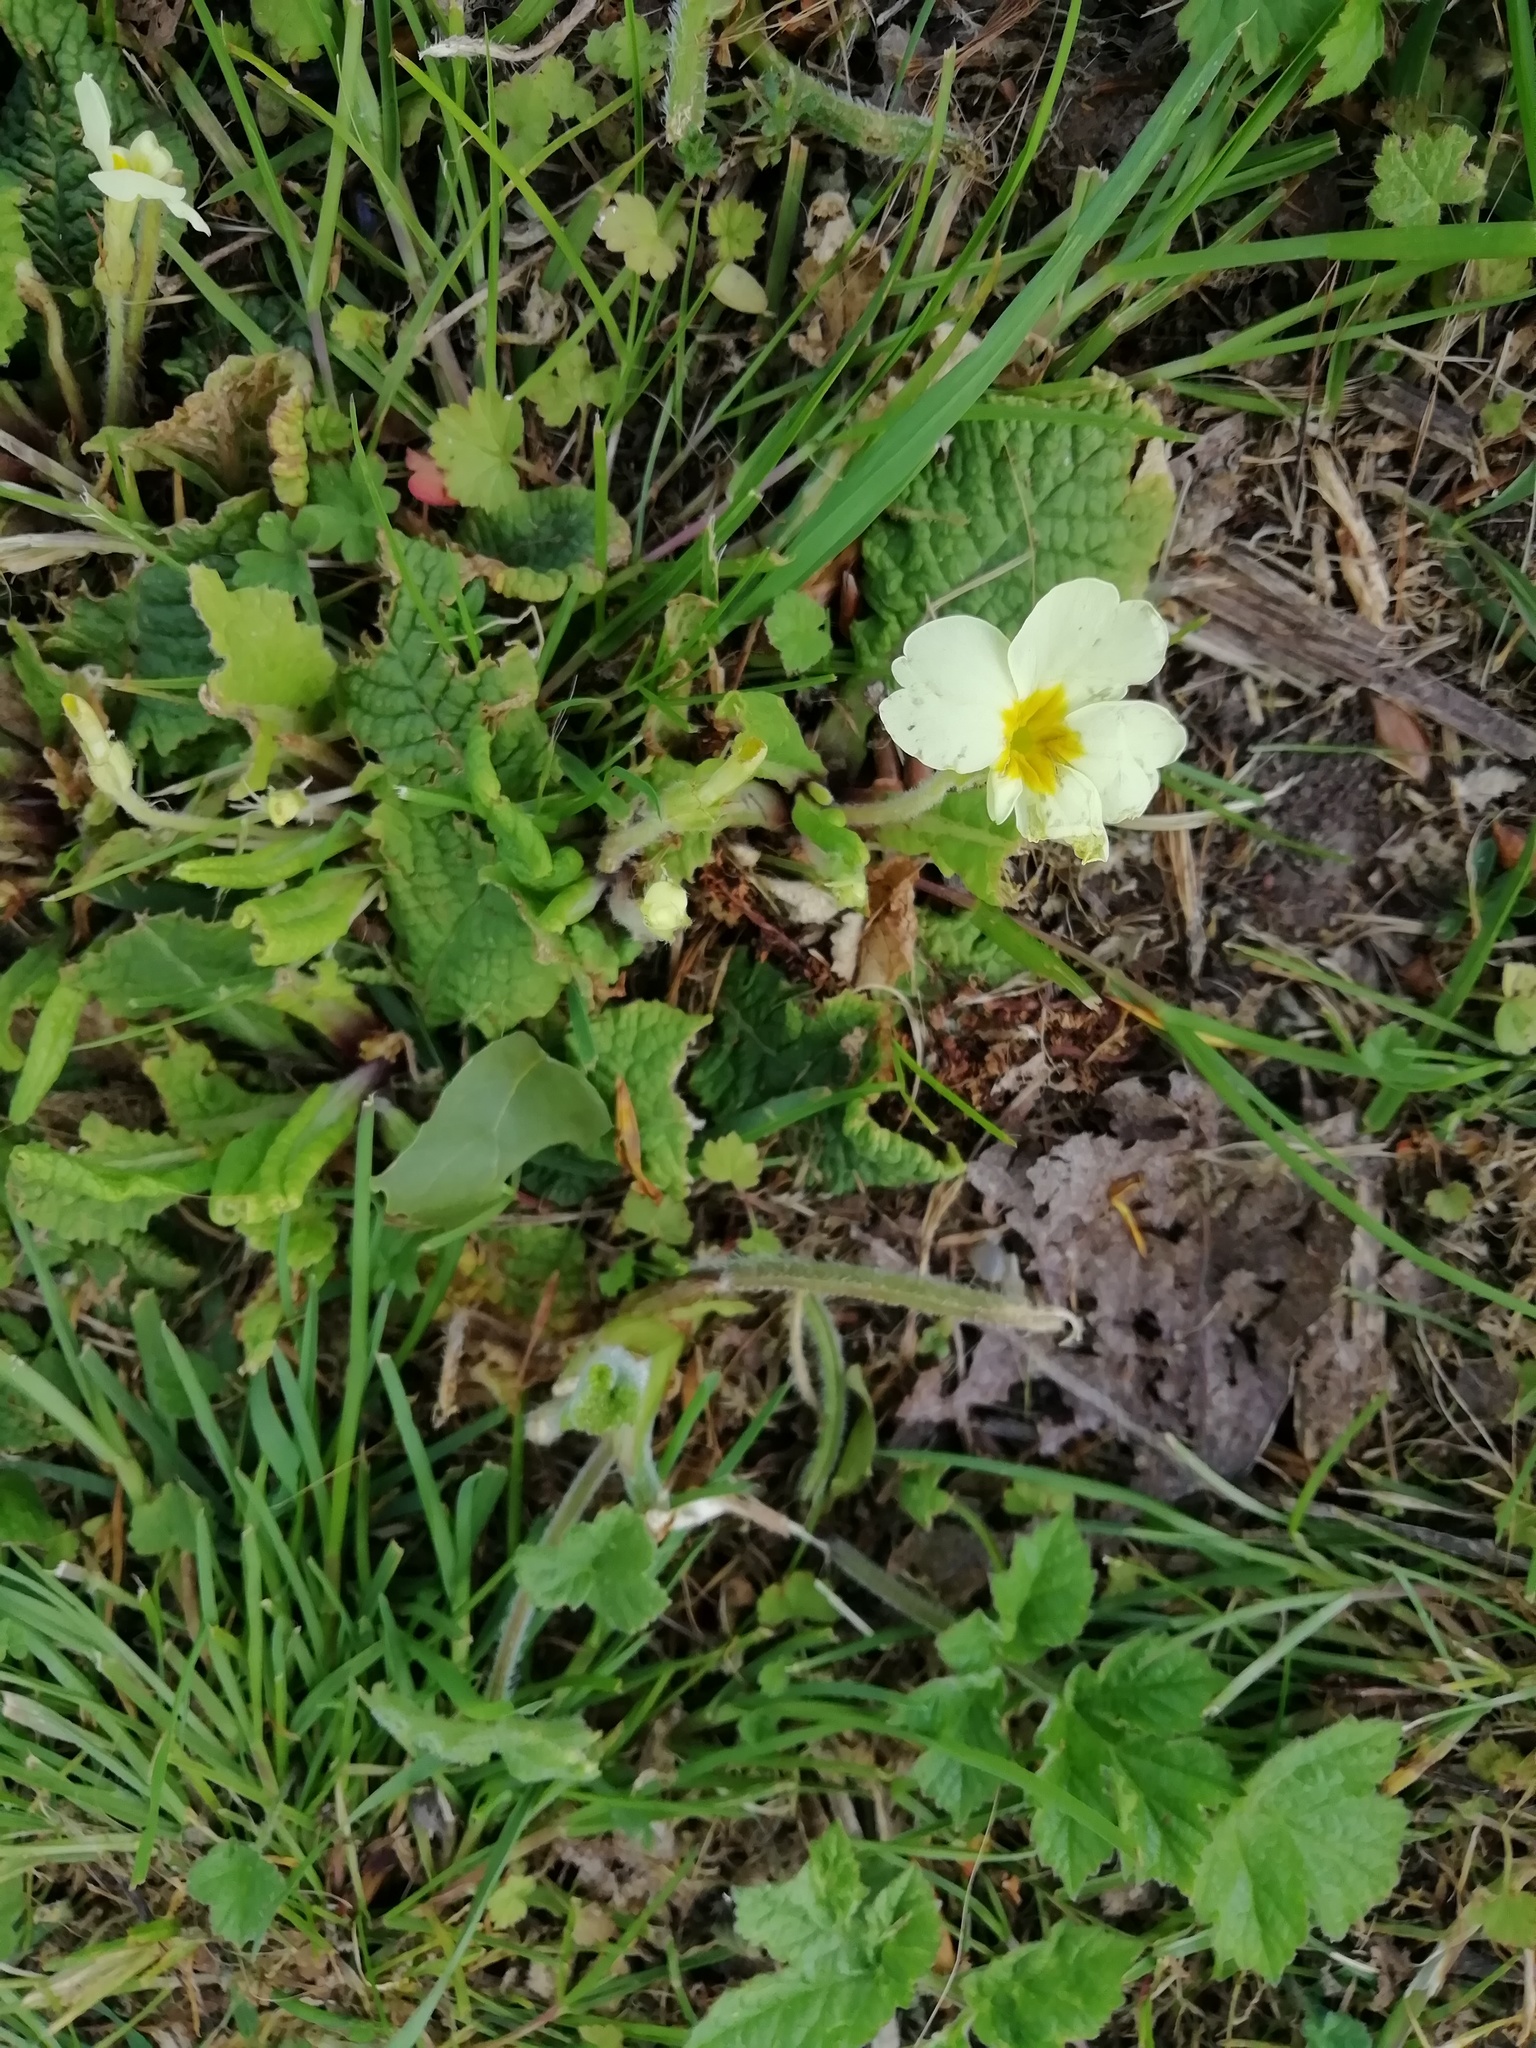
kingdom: Plantae
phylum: Tracheophyta
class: Magnoliopsida
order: Ericales
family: Primulaceae
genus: Primula
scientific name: Primula vulgaris
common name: Primrose
